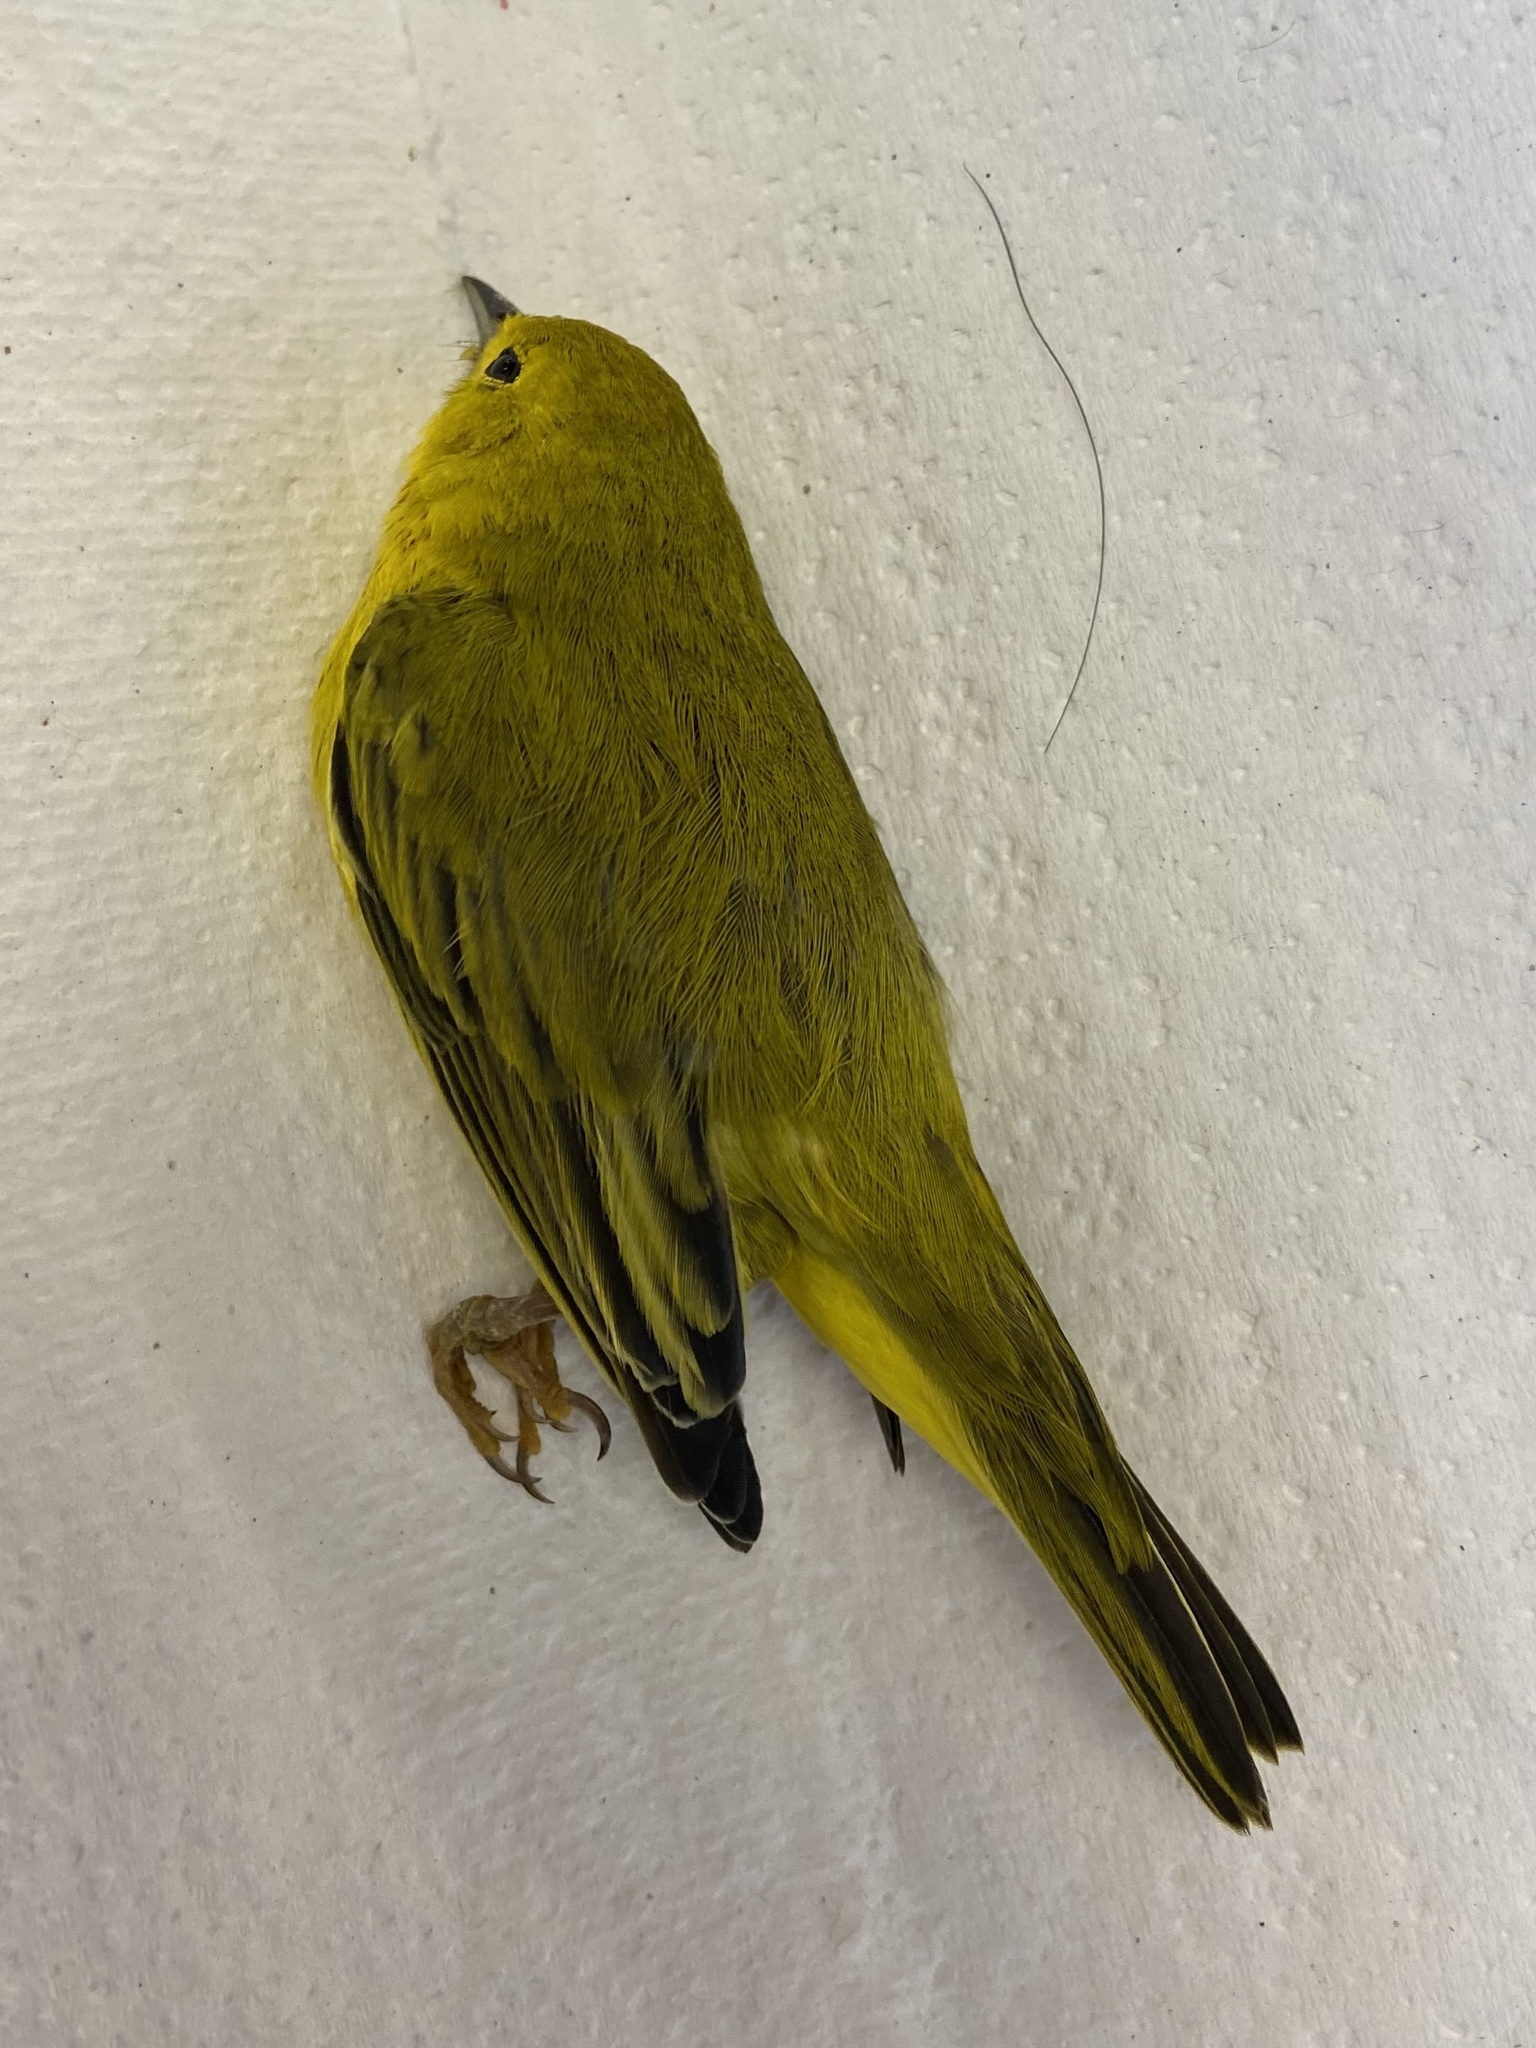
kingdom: Animalia
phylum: Chordata
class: Aves
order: Passeriformes
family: Parulidae
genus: Setophaga
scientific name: Setophaga petechia
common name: Yellow warbler
